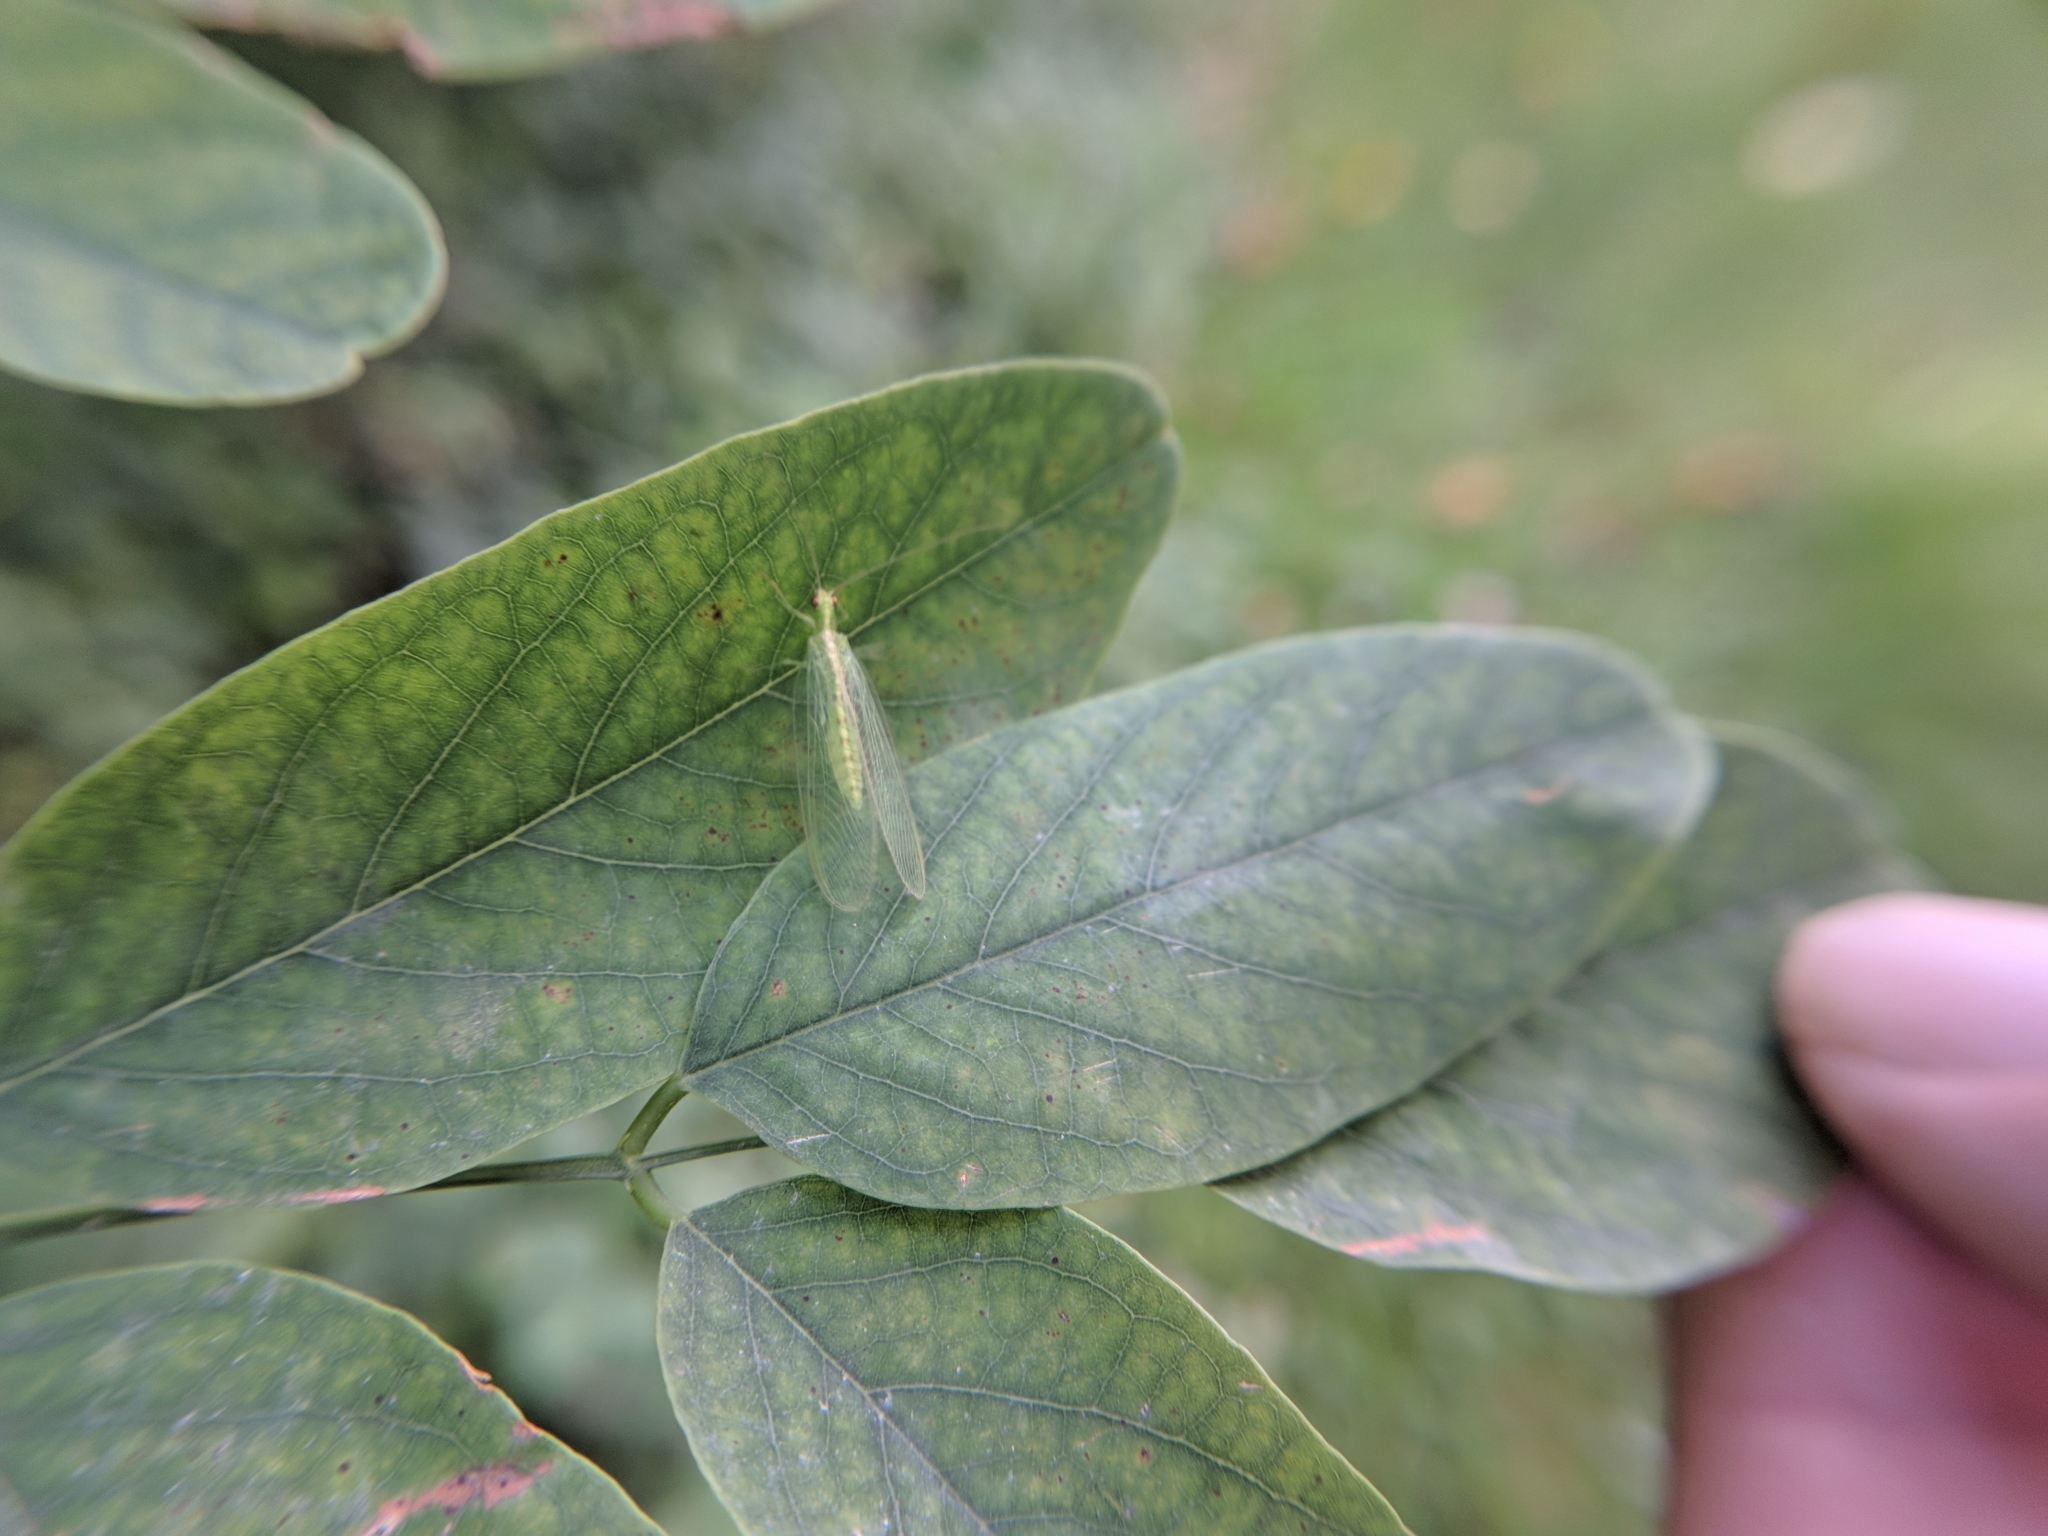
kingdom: Animalia
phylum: Arthropoda
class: Insecta
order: Neuroptera
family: Chrysopidae
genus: Chrysoperla
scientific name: Chrysoperla
